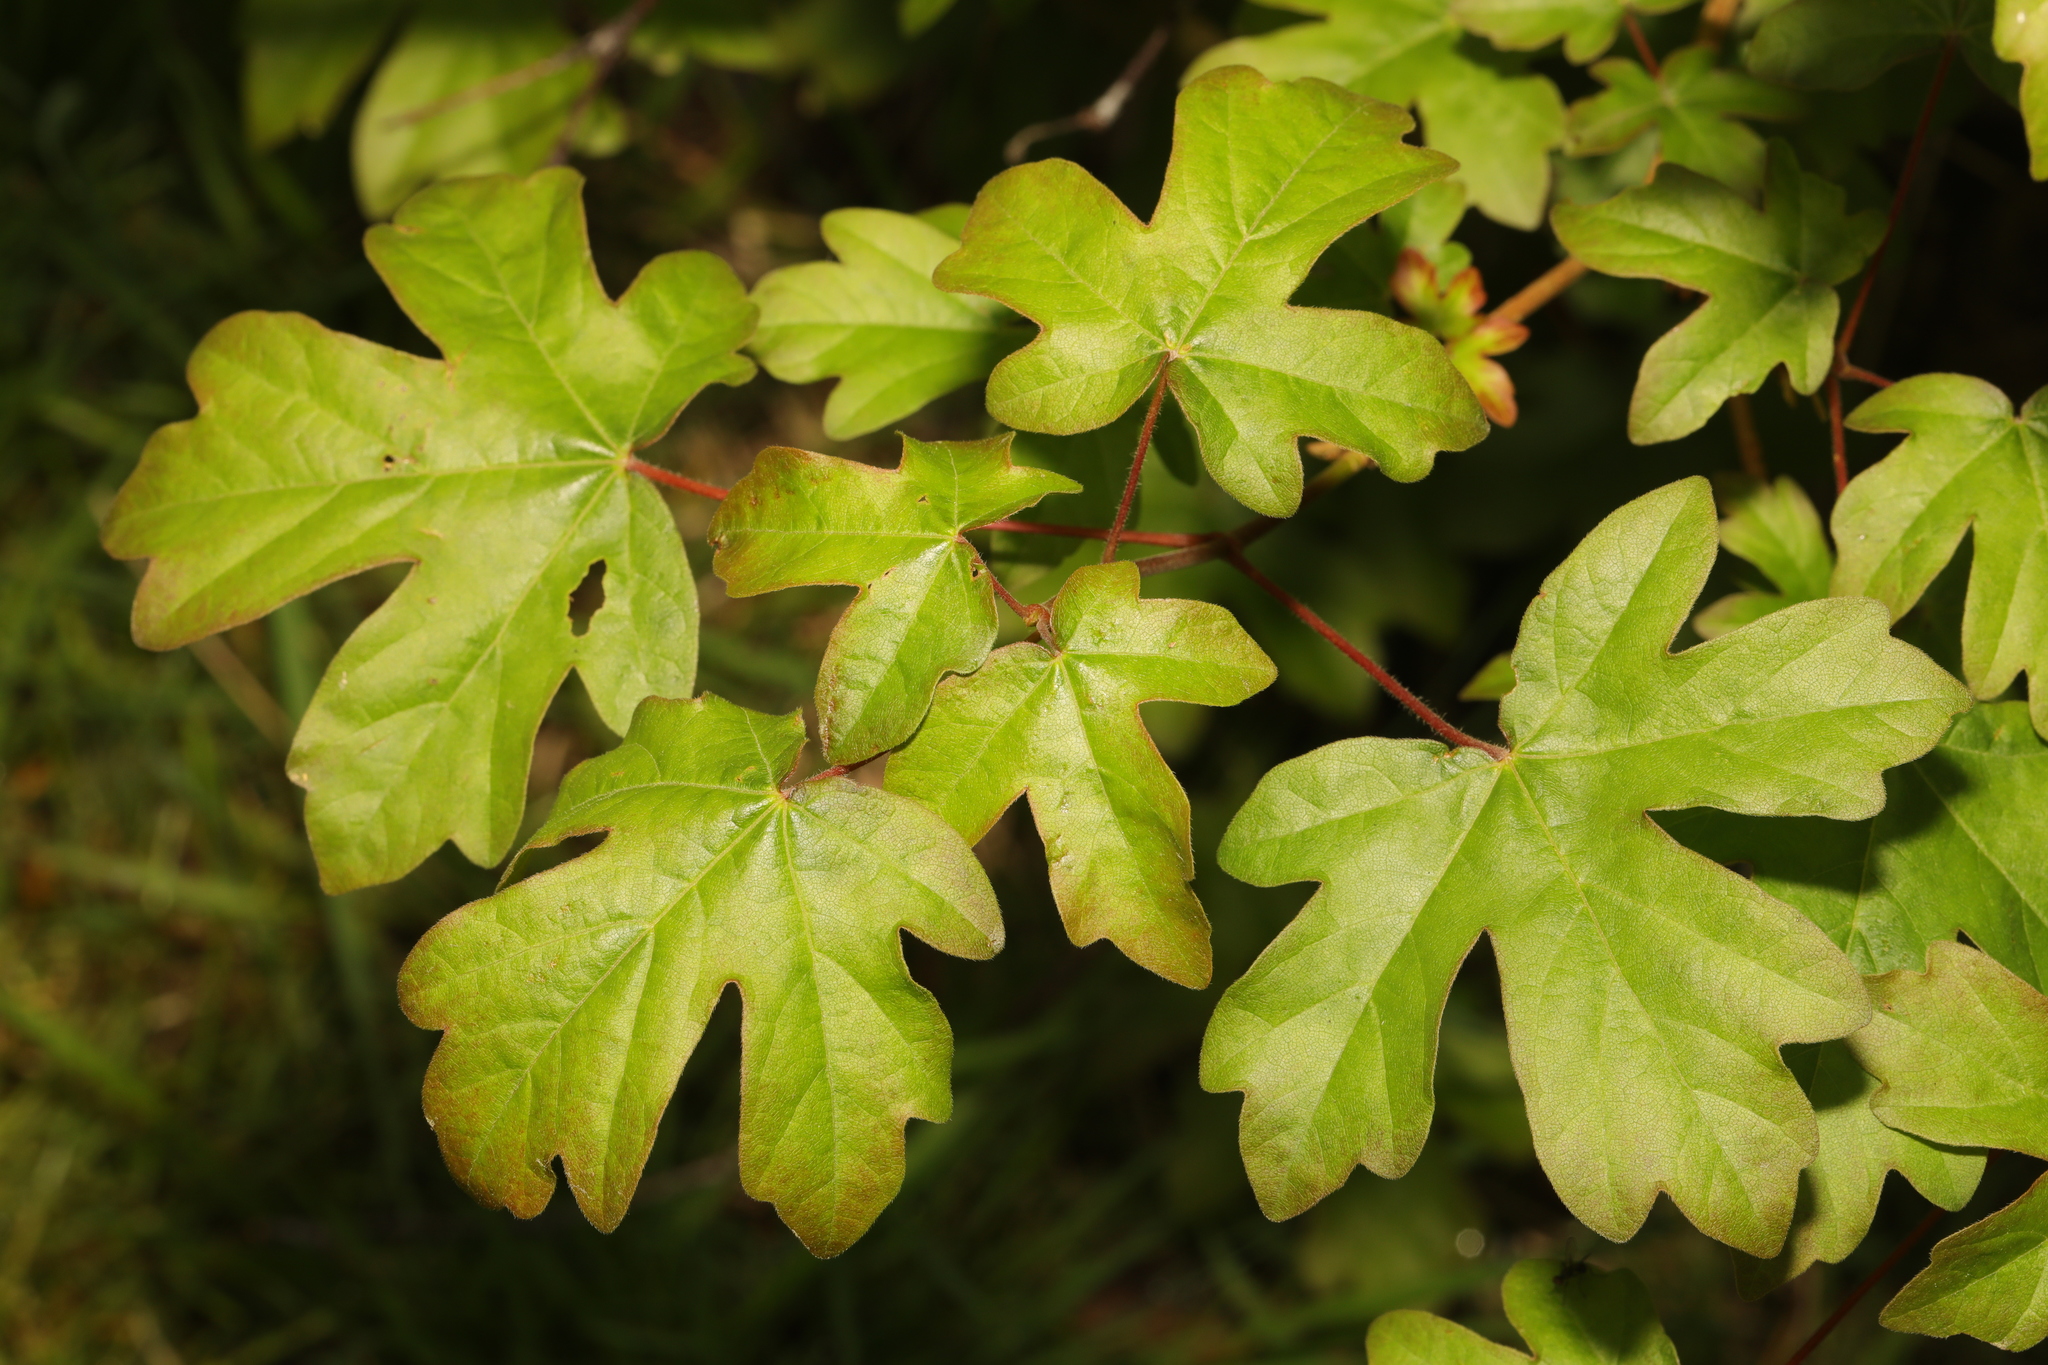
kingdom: Plantae
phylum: Tracheophyta
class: Magnoliopsida
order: Sapindales
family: Sapindaceae
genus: Acer
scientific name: Acer campestre
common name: Field maple
